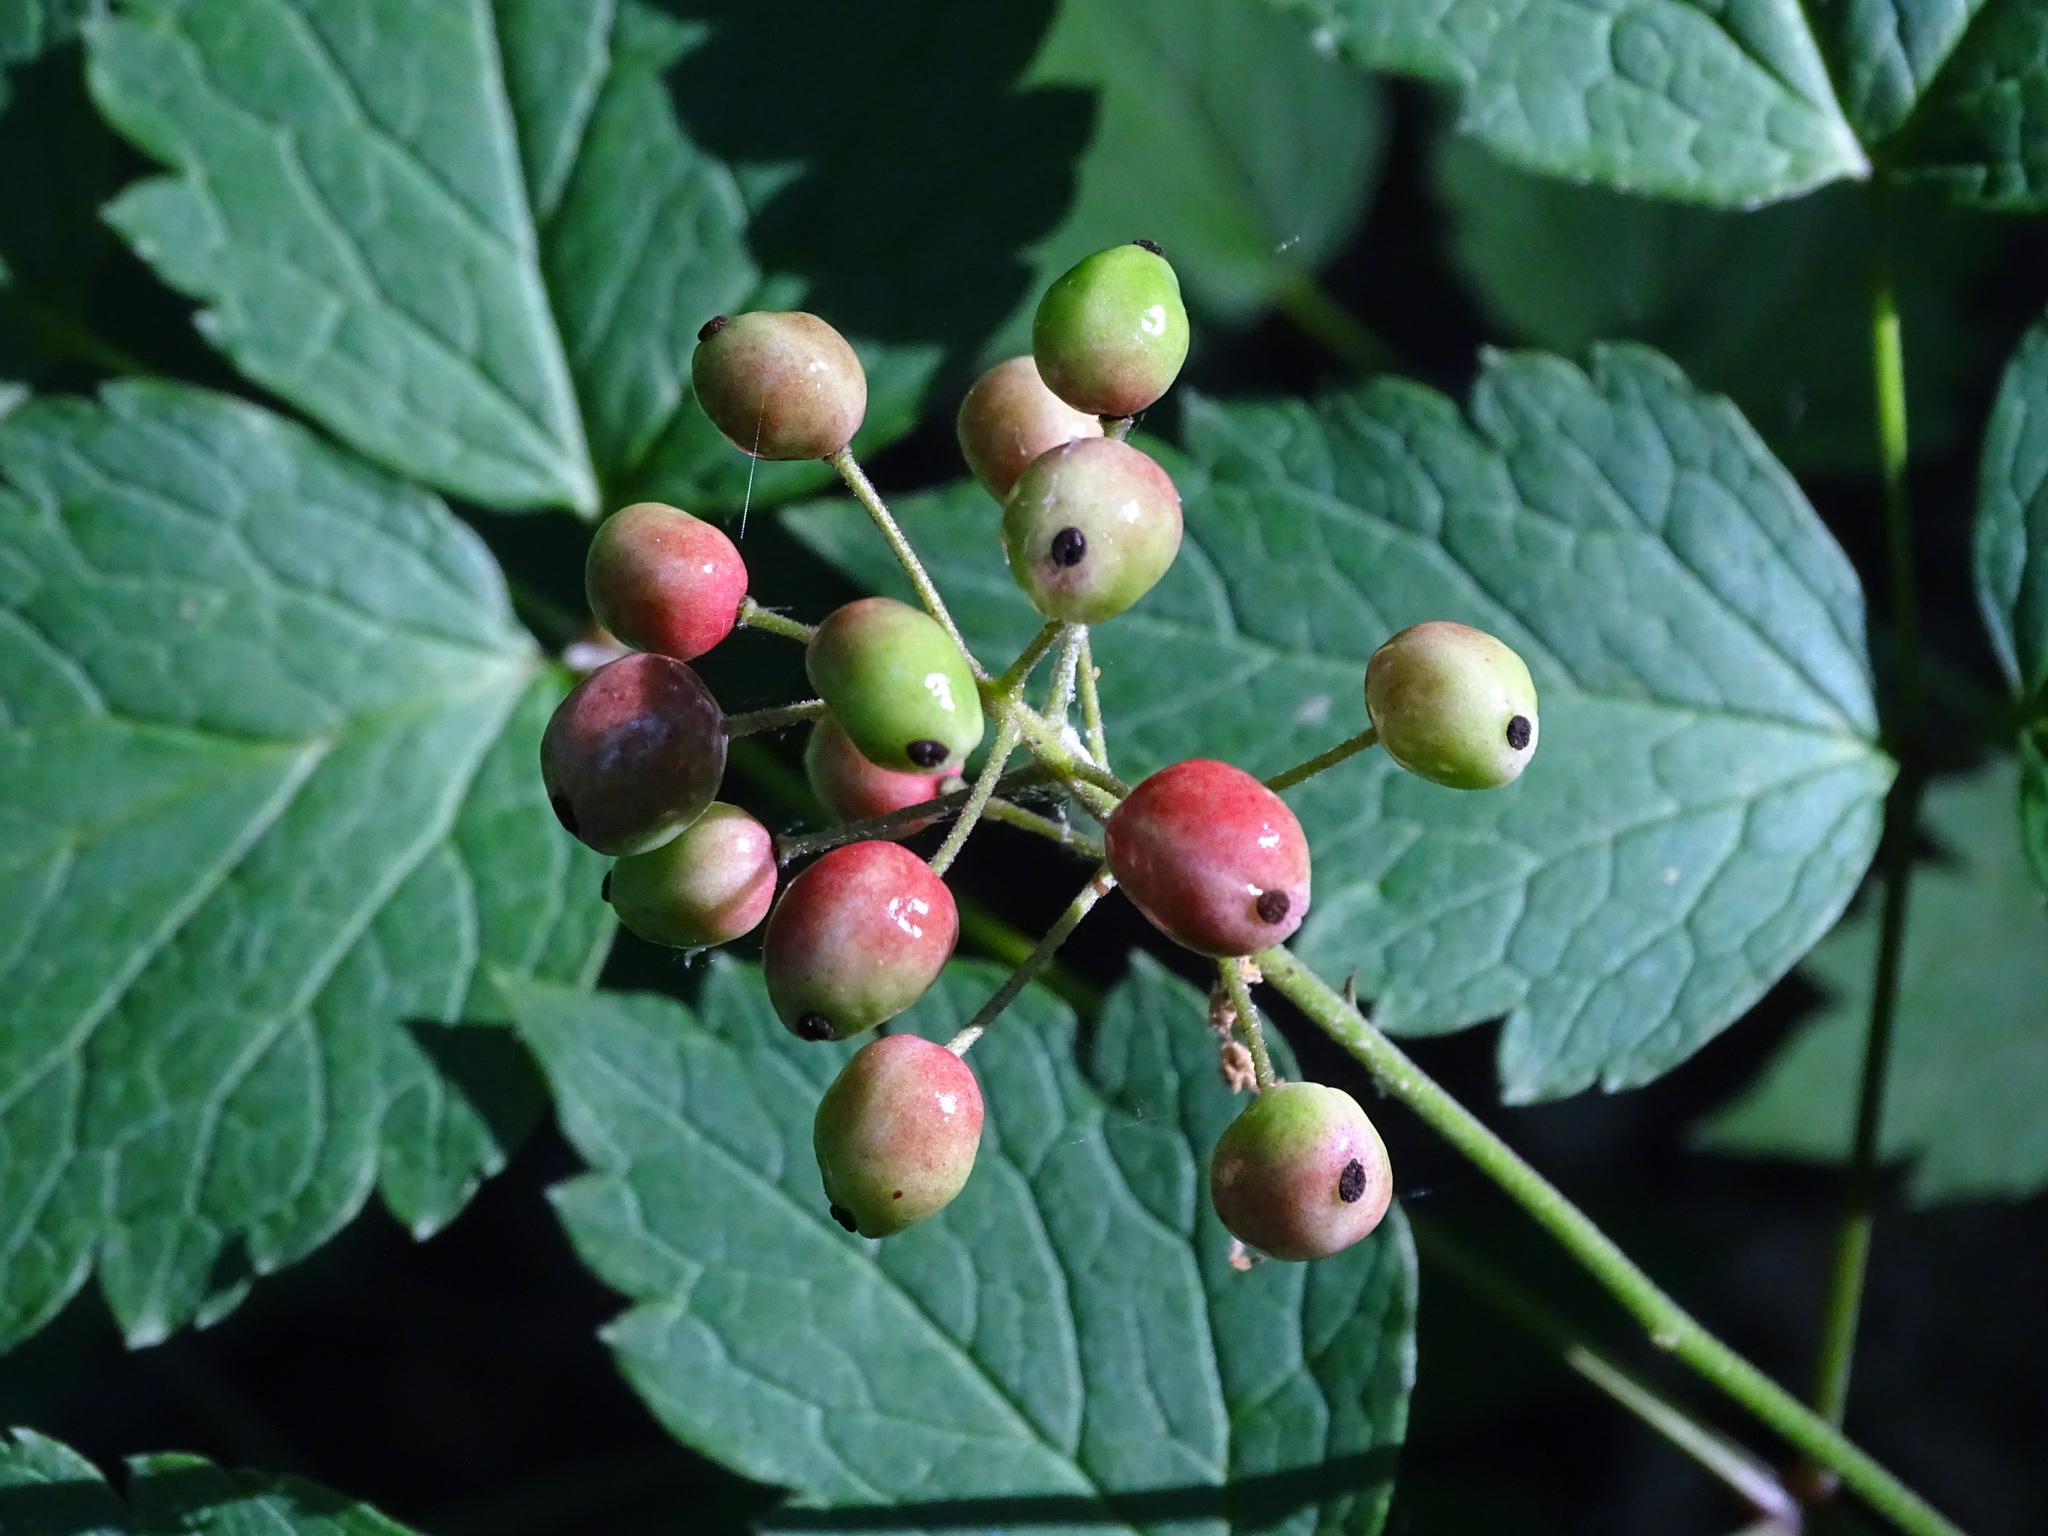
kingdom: Plantae
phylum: Tracheophyta
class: Magnoliopsida
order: Ranunculales
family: Ranunculaceae
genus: Actaea
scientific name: Actaea rubra
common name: Red baneberry
